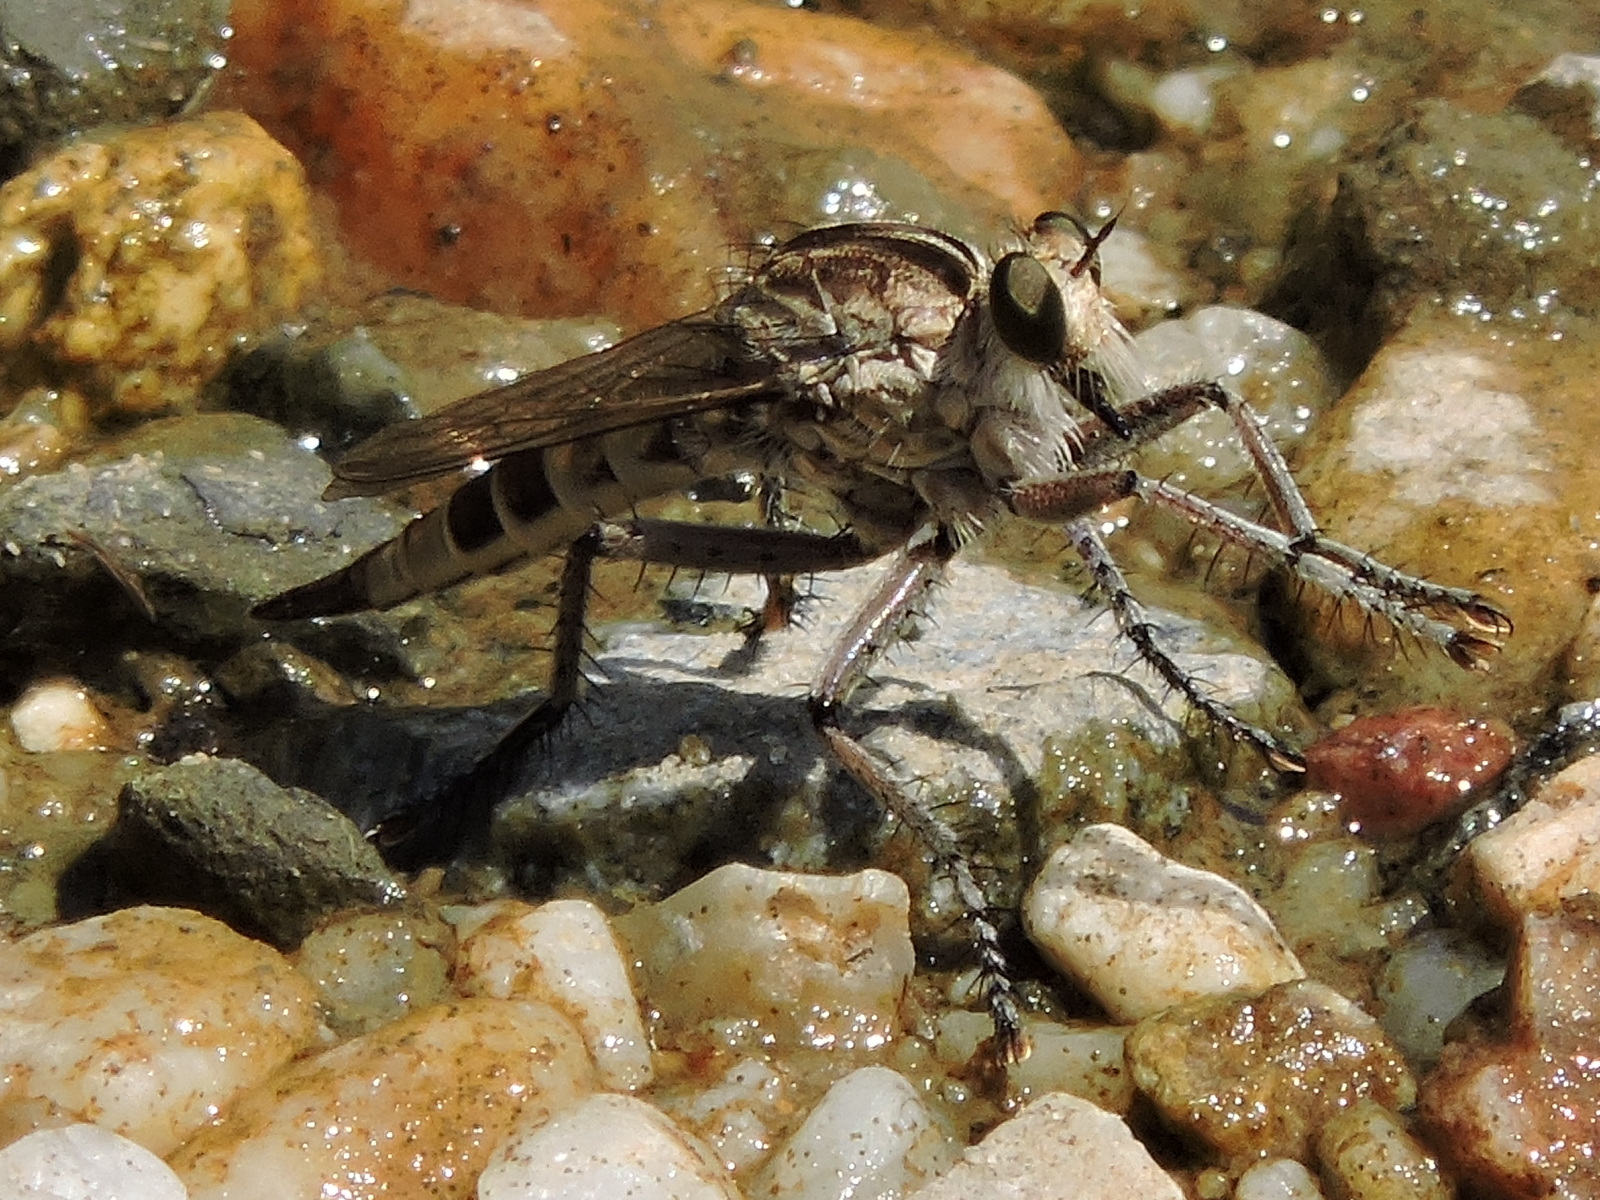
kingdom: Animalia
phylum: Arthropoda
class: Insecta
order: Diptera
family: Asilidae
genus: Triorla
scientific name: Triorla interrupta
